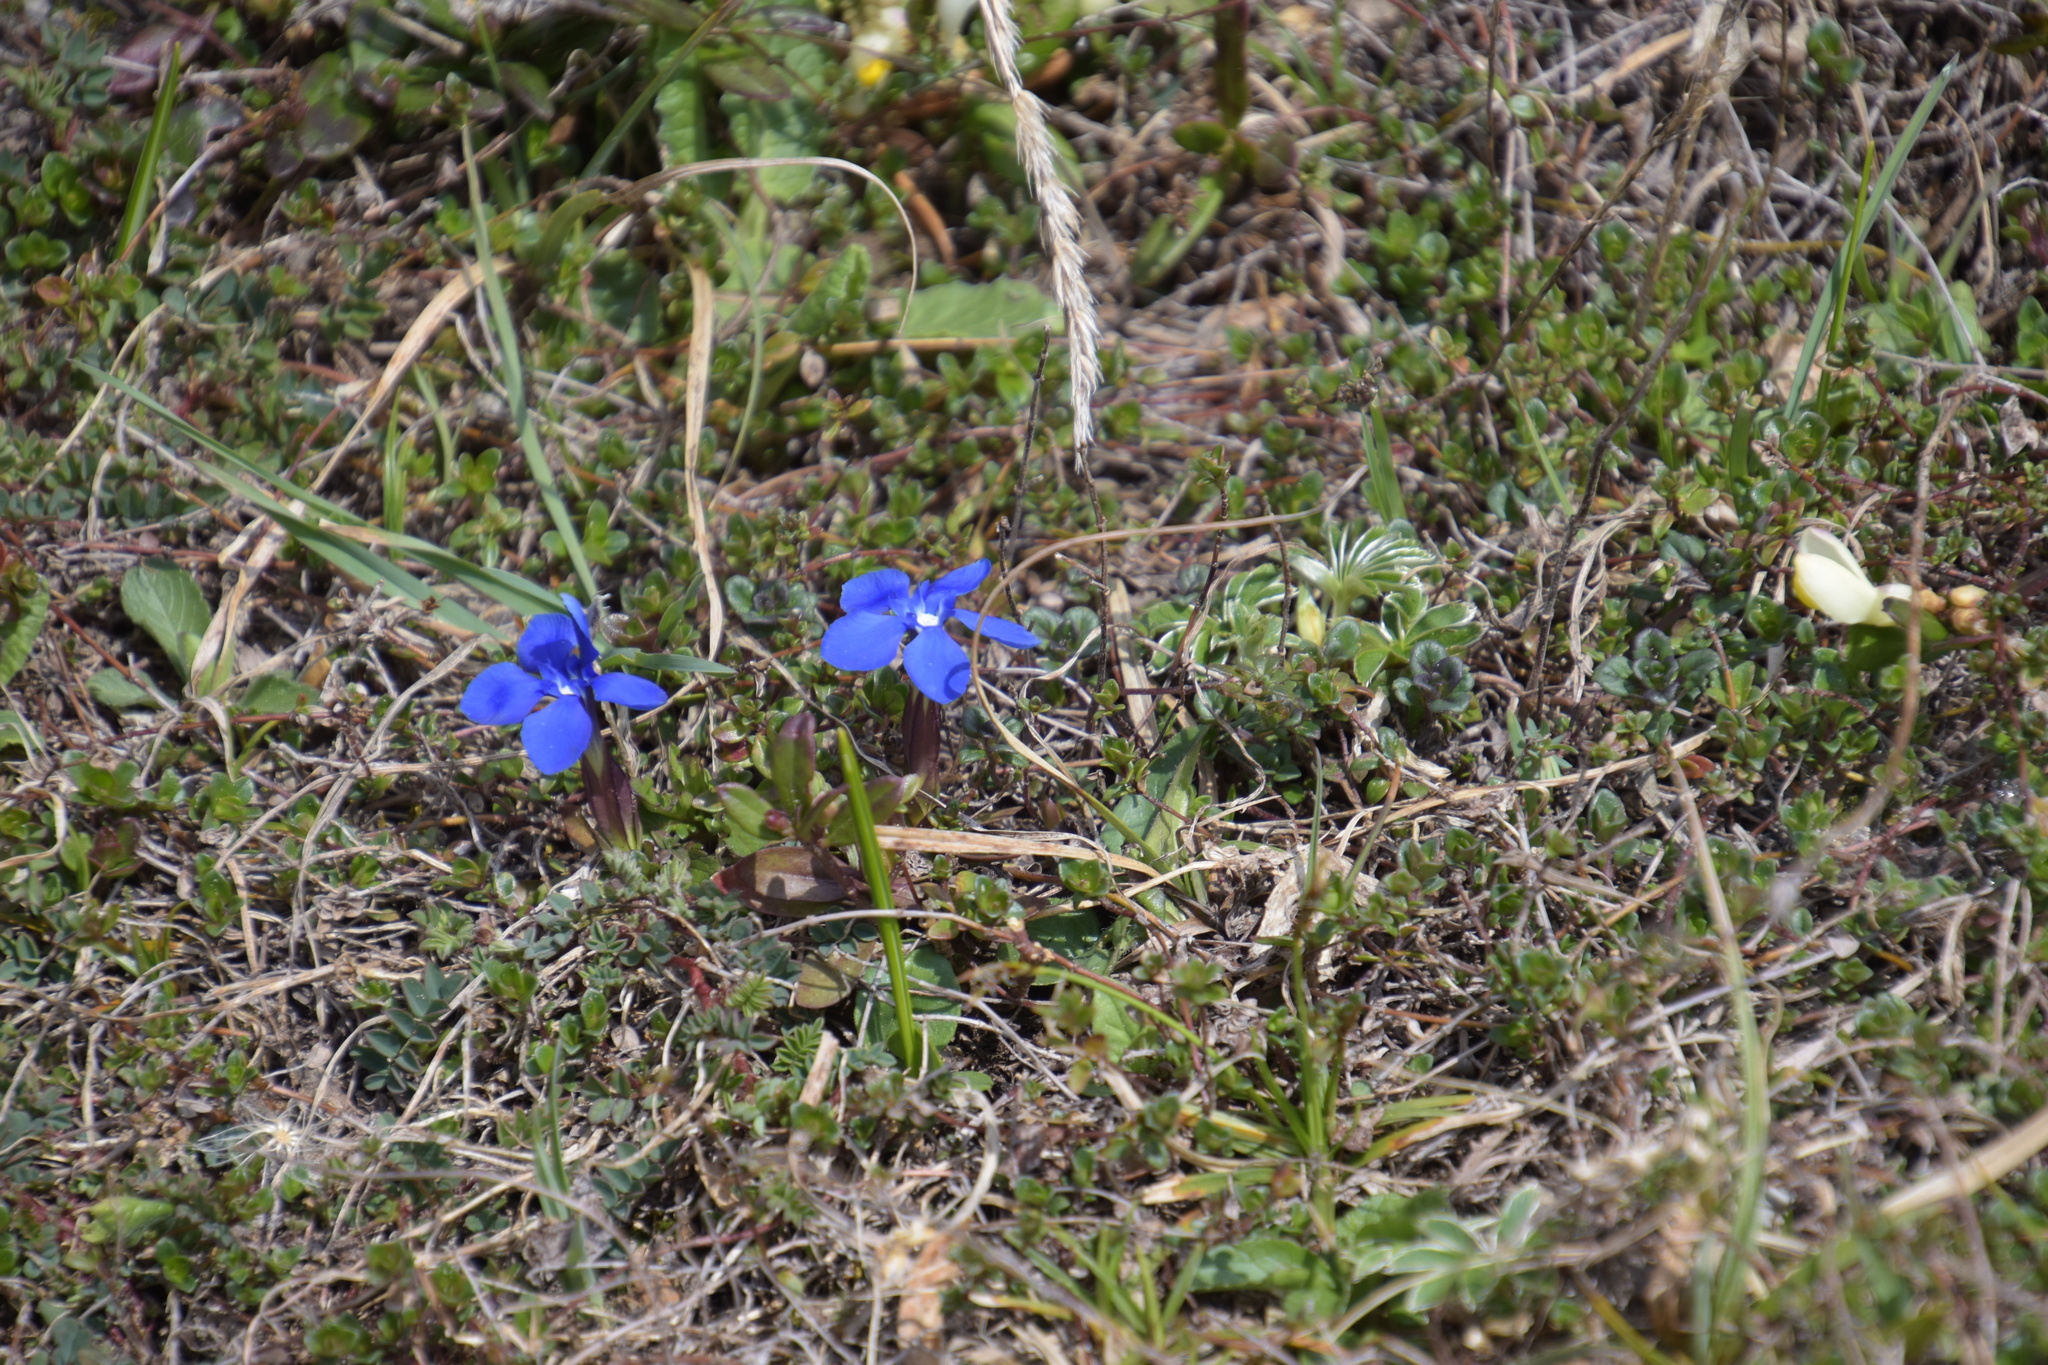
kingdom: Plantae
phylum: Tracheophyta
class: Magnoliopsida
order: Gentianales
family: Gentianaceae
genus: Gentiana
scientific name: Gentiana verna
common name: Spring gentian
